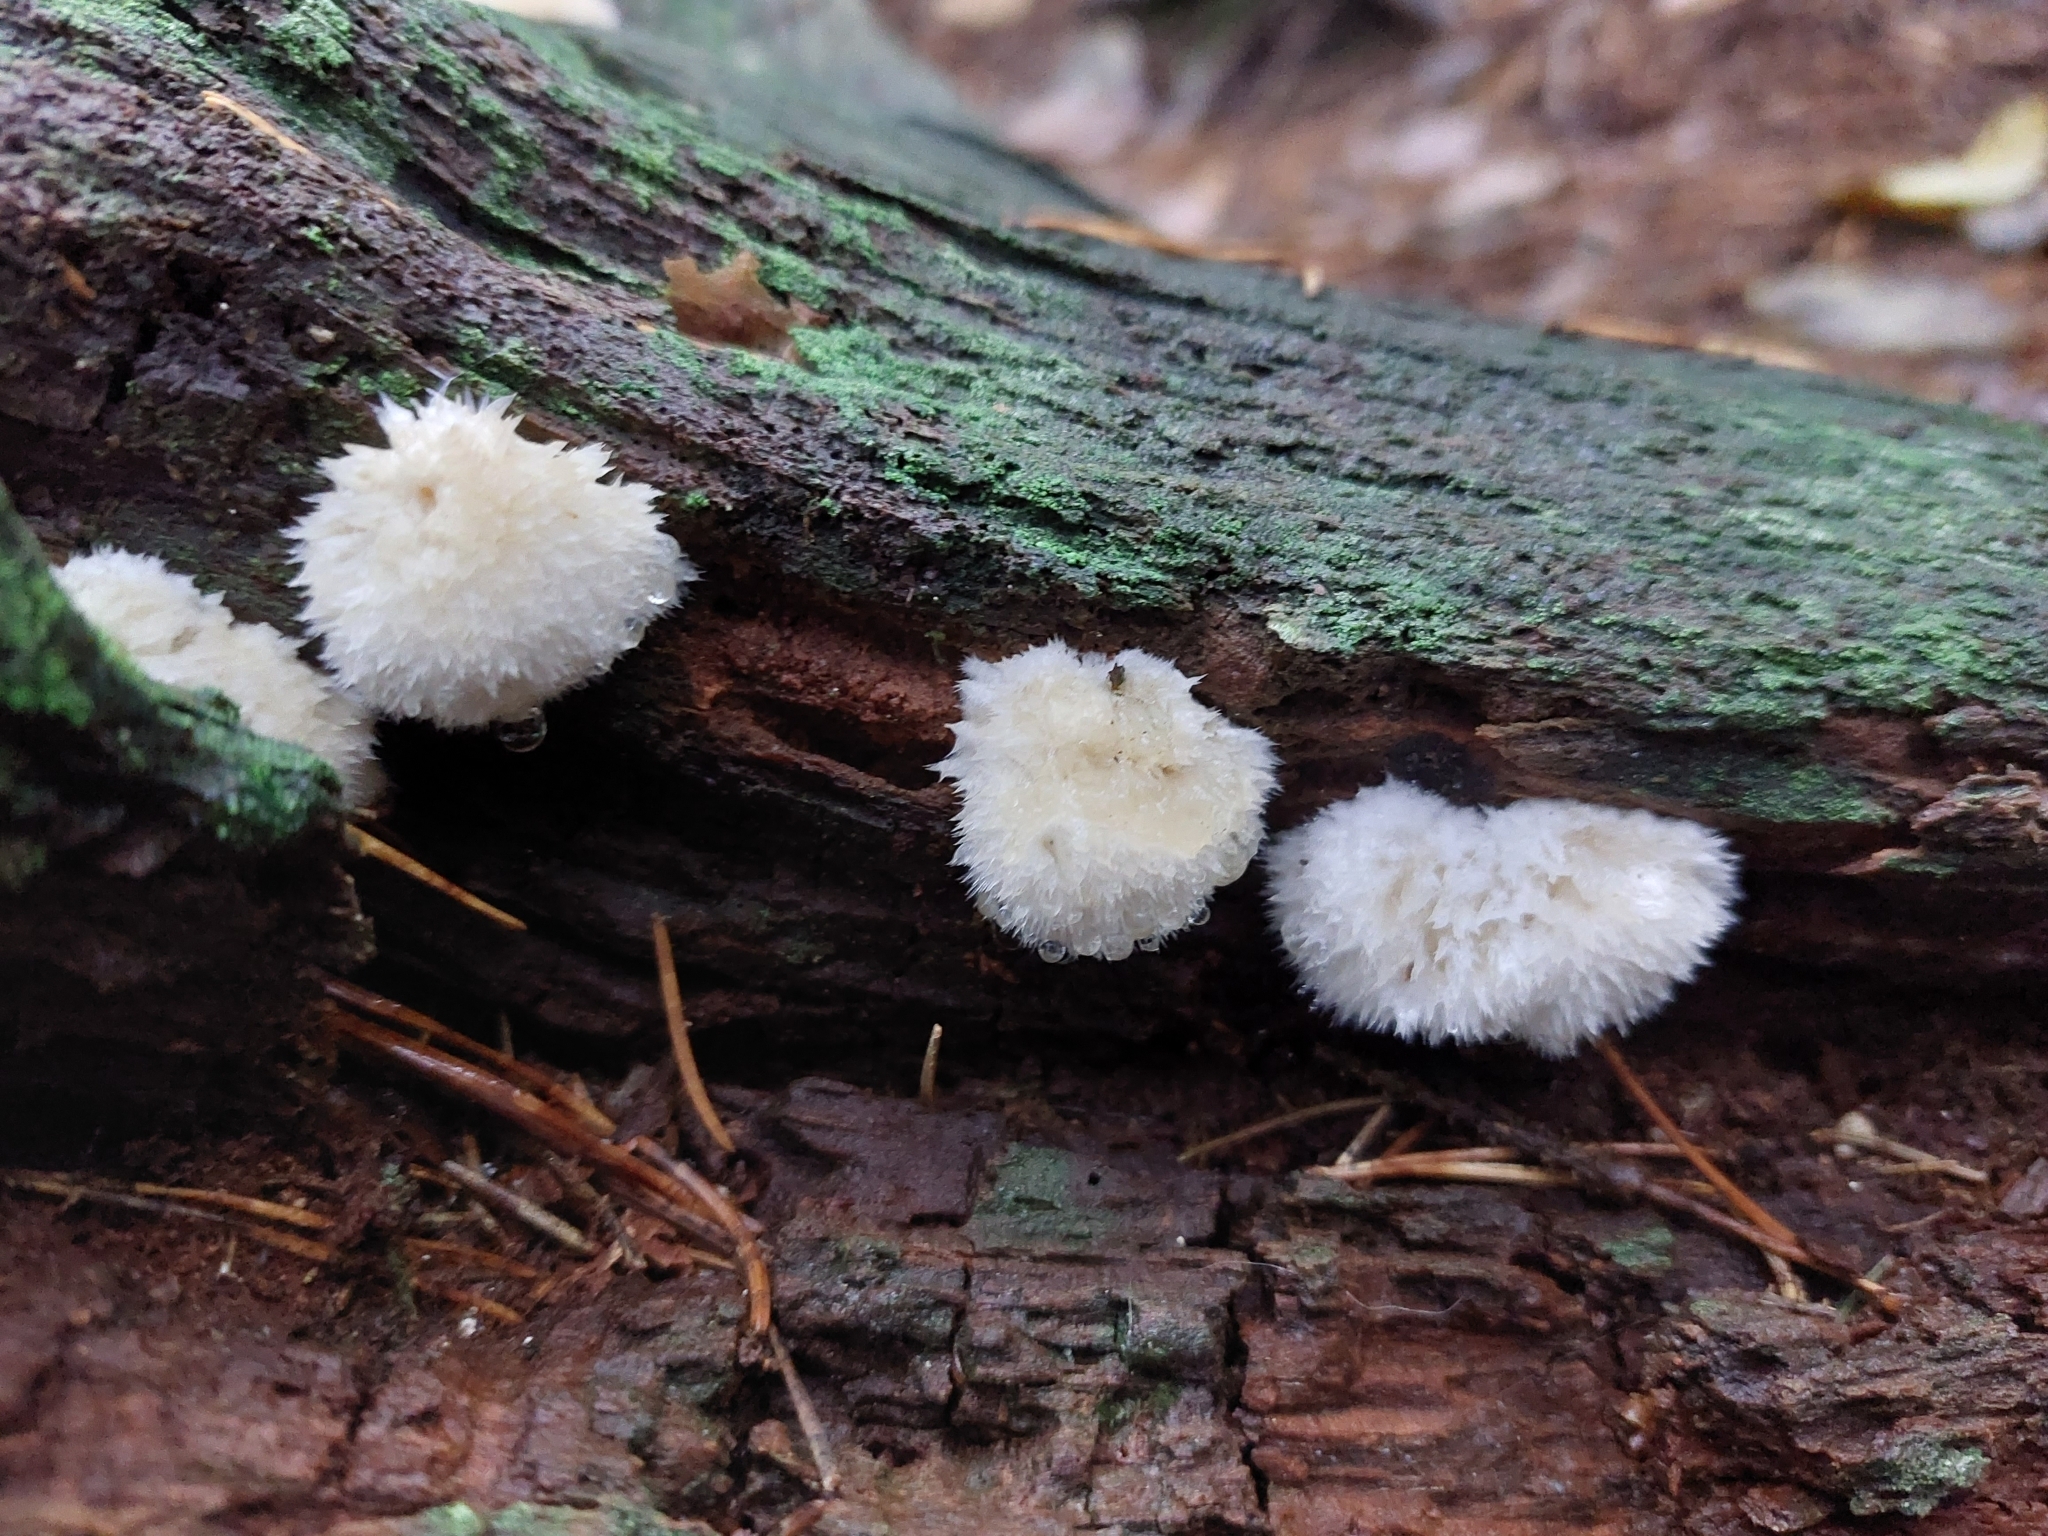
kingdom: Fungi
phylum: Basidiomycota
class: Agaricomycetes
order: Polyporales
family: Dacryobolaceae
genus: Postia
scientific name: Postia ptychogaster
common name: Powderpuff bracket
